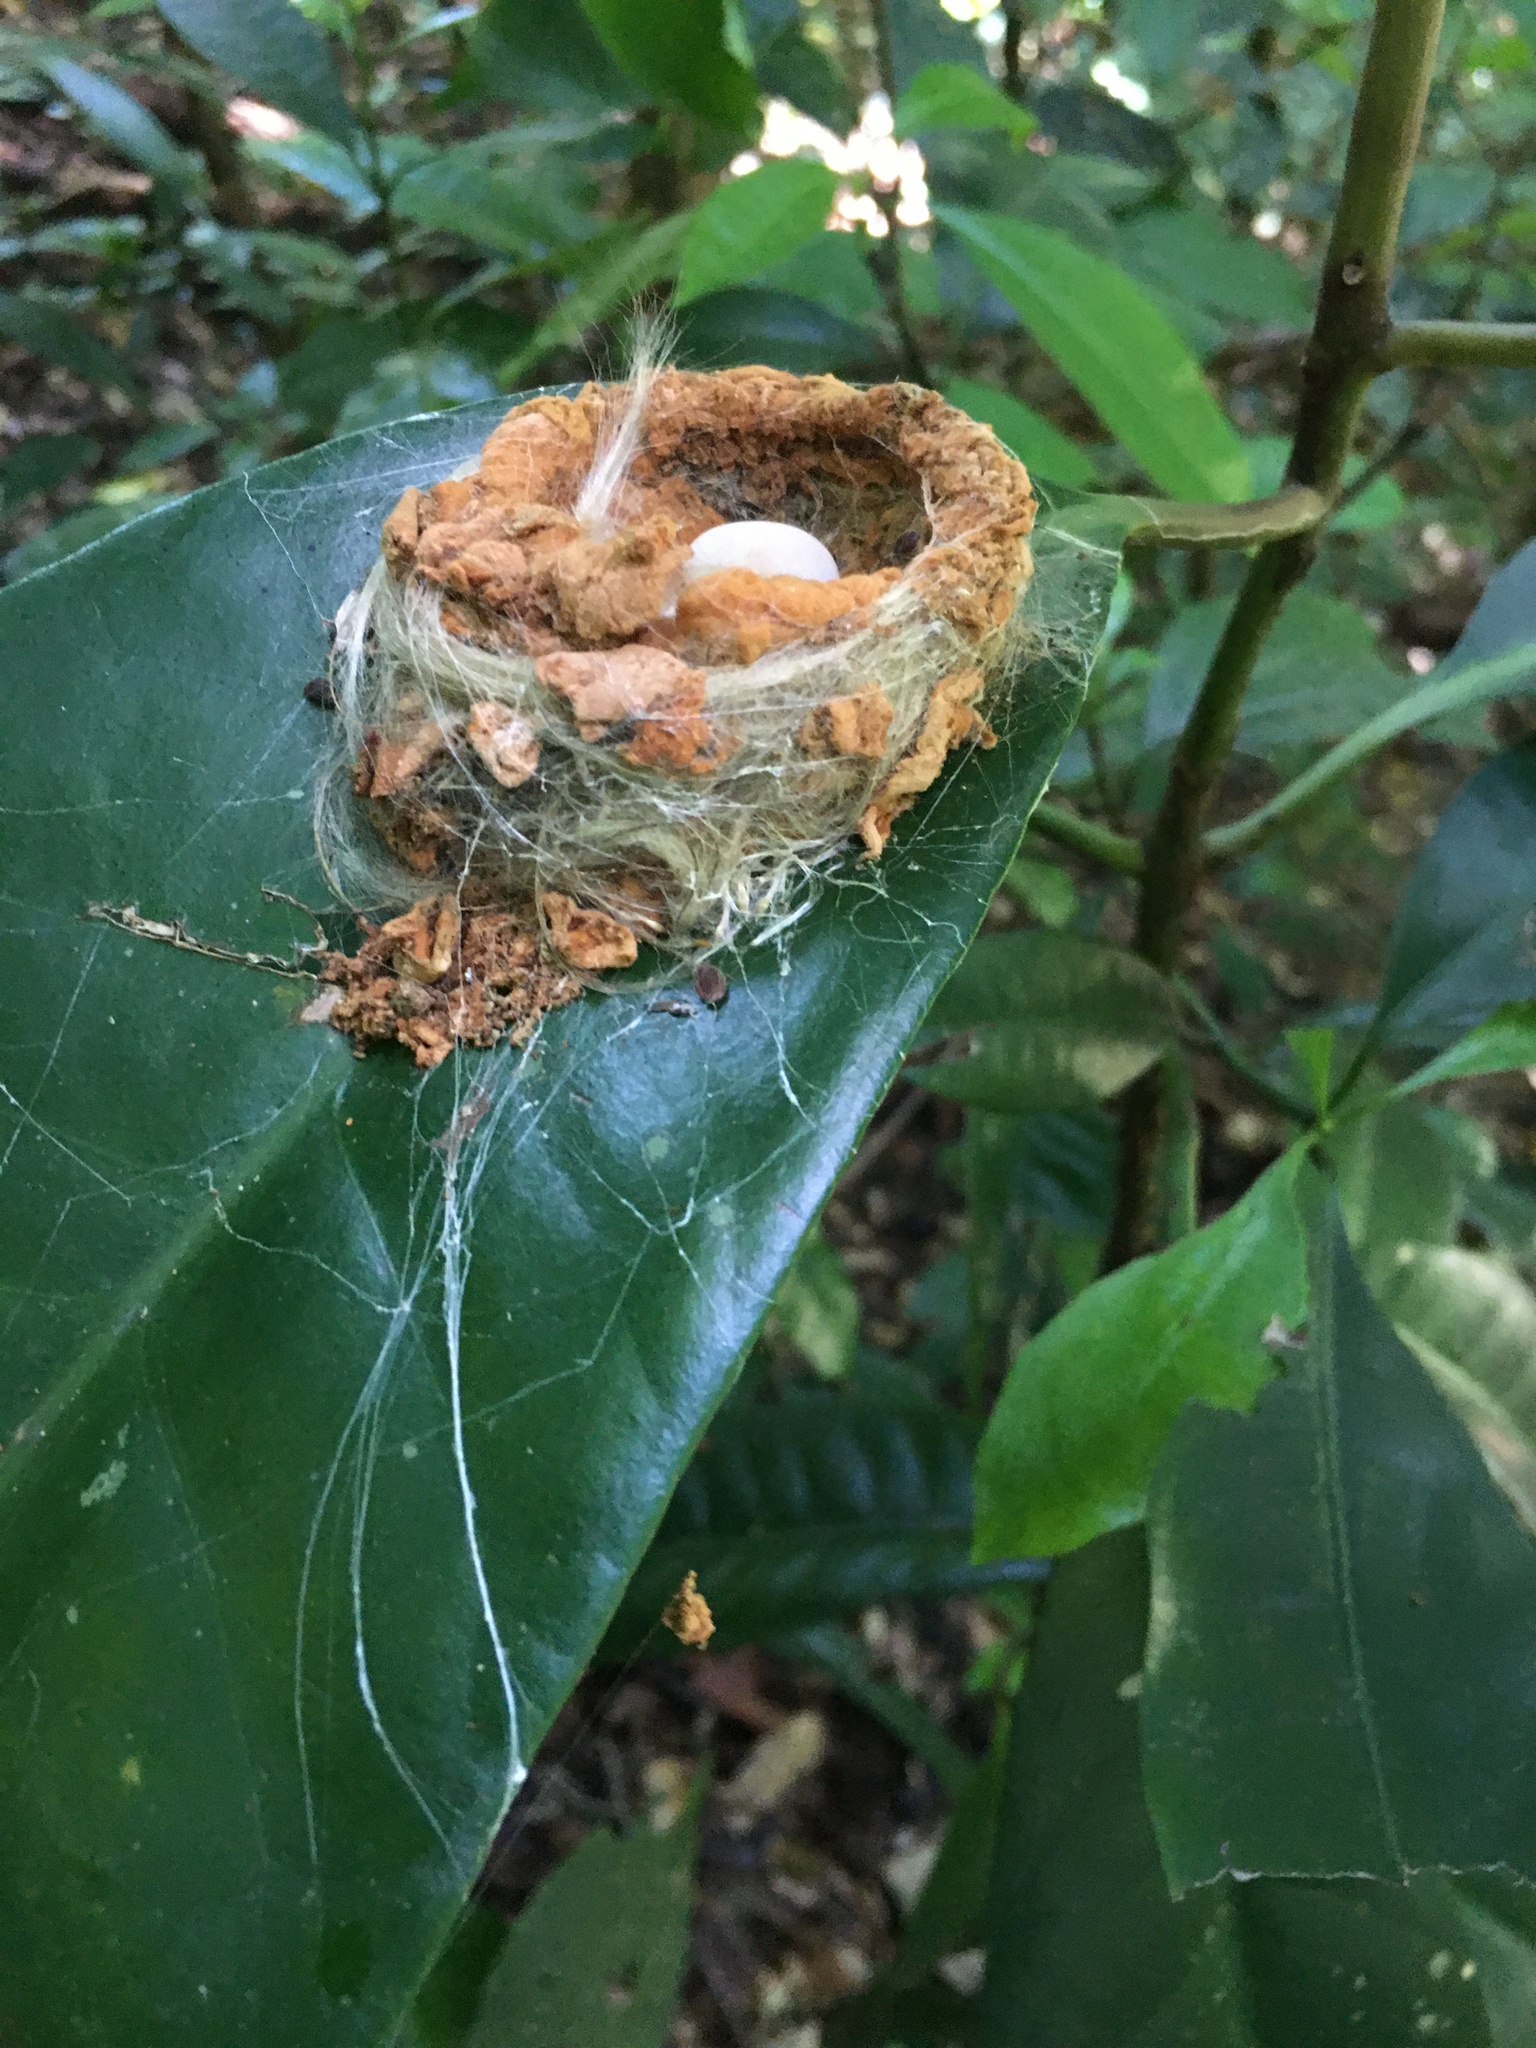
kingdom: Animalia
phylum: Chordata
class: Aves
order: Apodiformes
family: Trochilidae
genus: Florisuga
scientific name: Florisuga fusca
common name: Black jacobin
